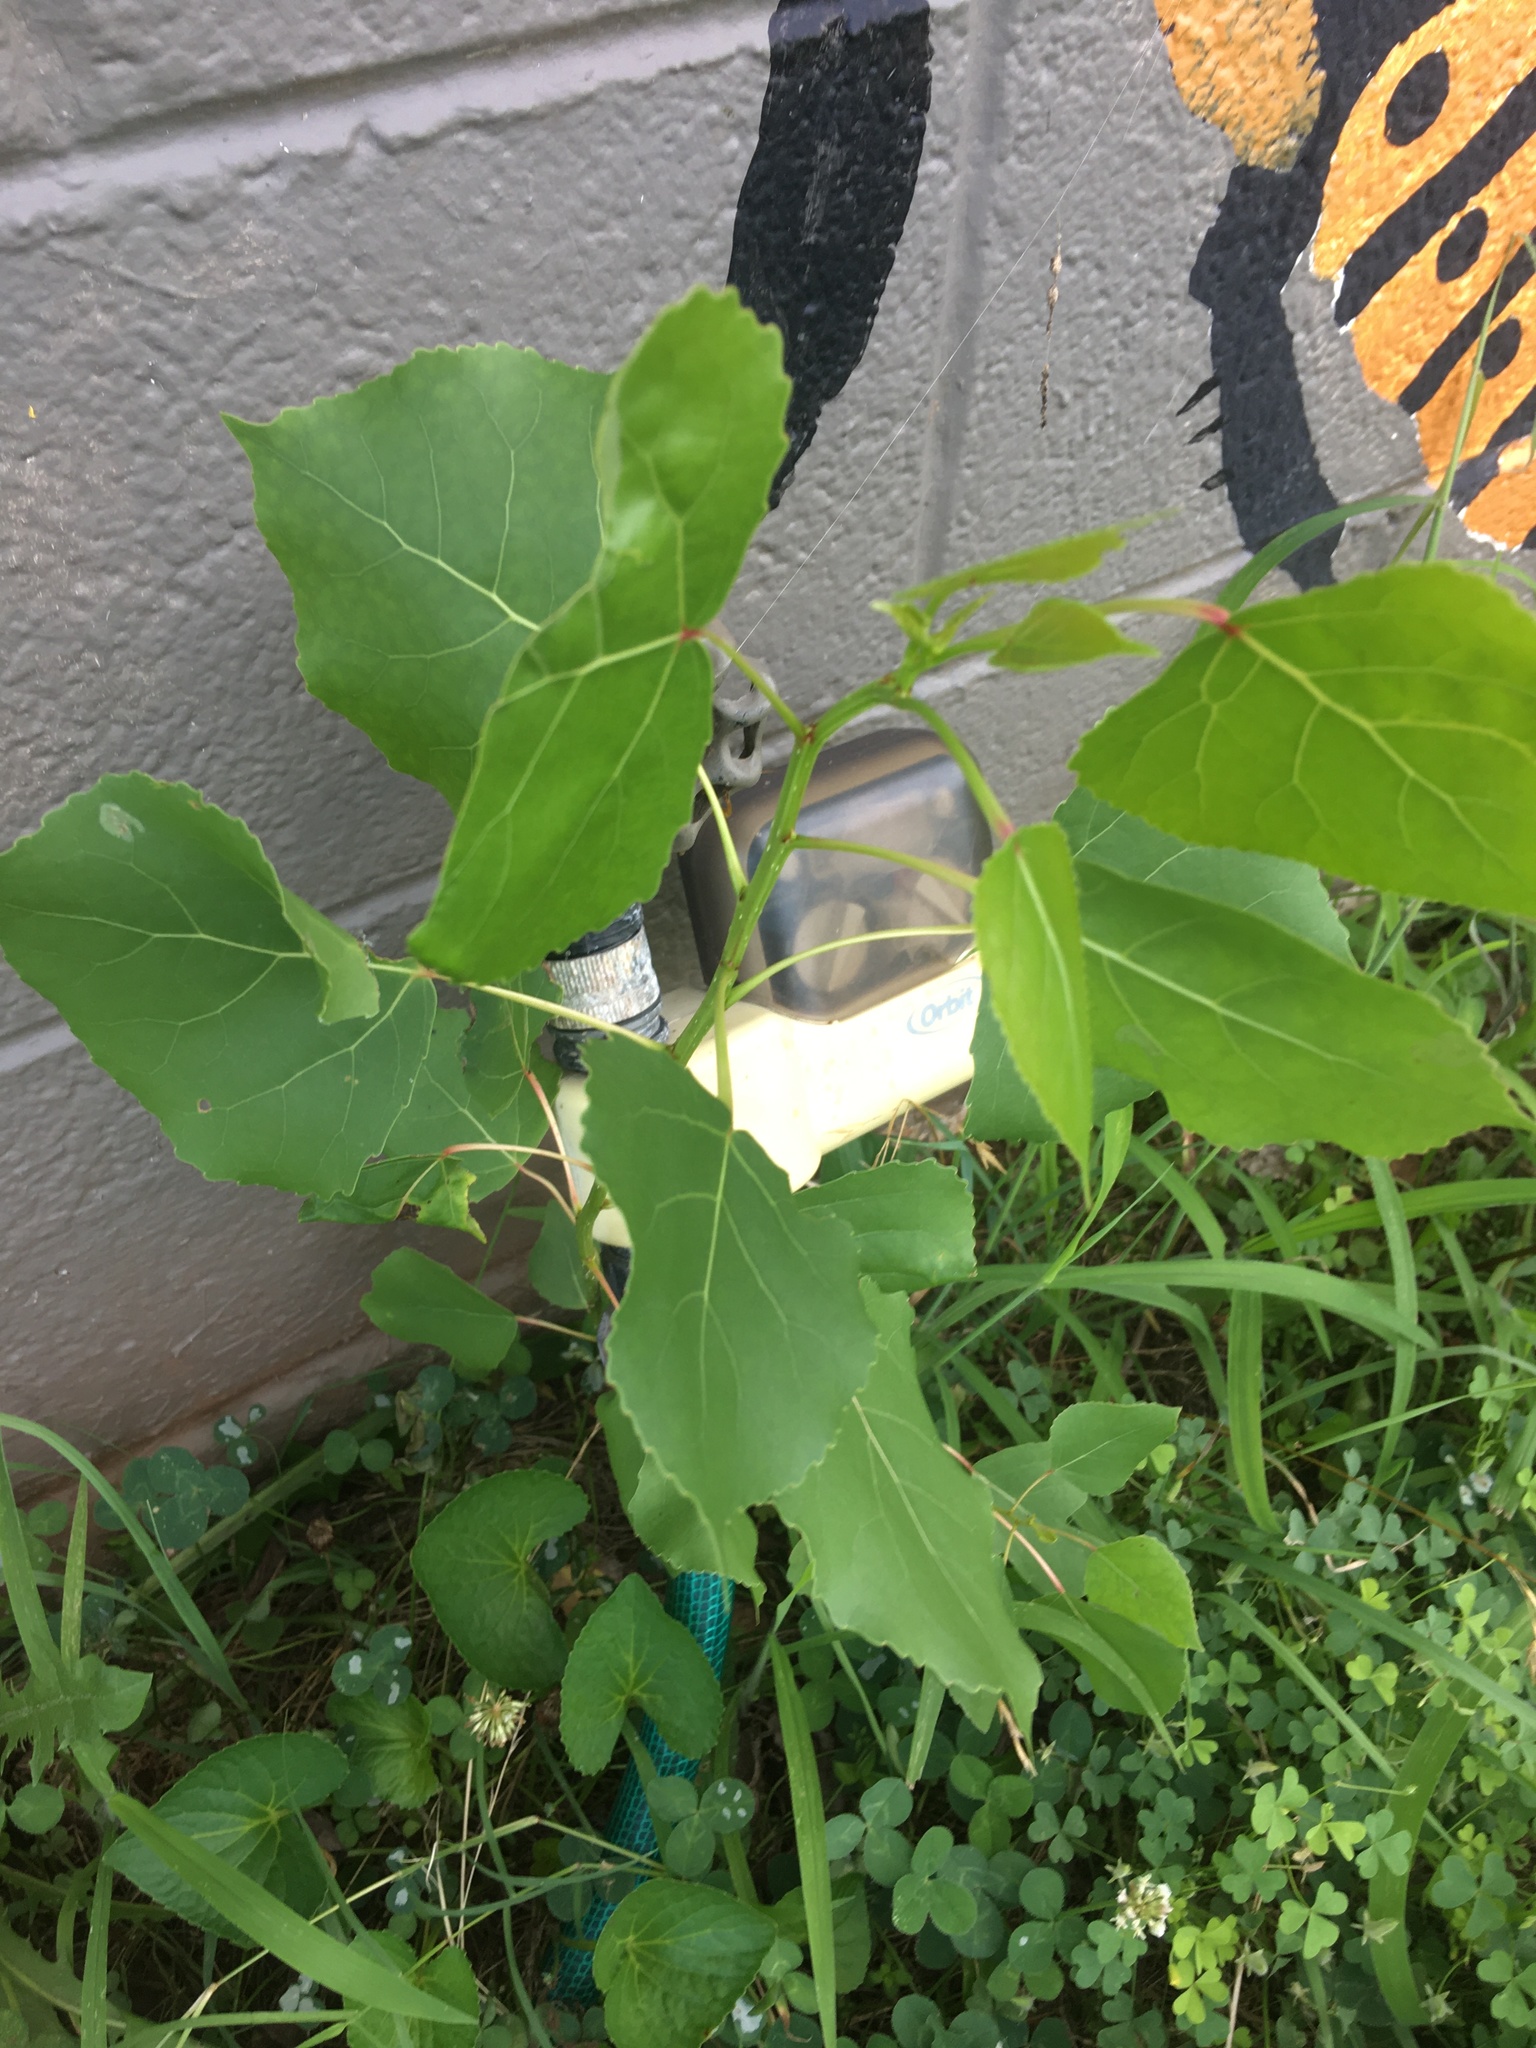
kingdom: Plantae
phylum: Tracheophyta
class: Magnoliopsida
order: Malpighiales
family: Salicaceae
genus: Populus
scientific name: Populus deltoides
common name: Eastern cottonwood
